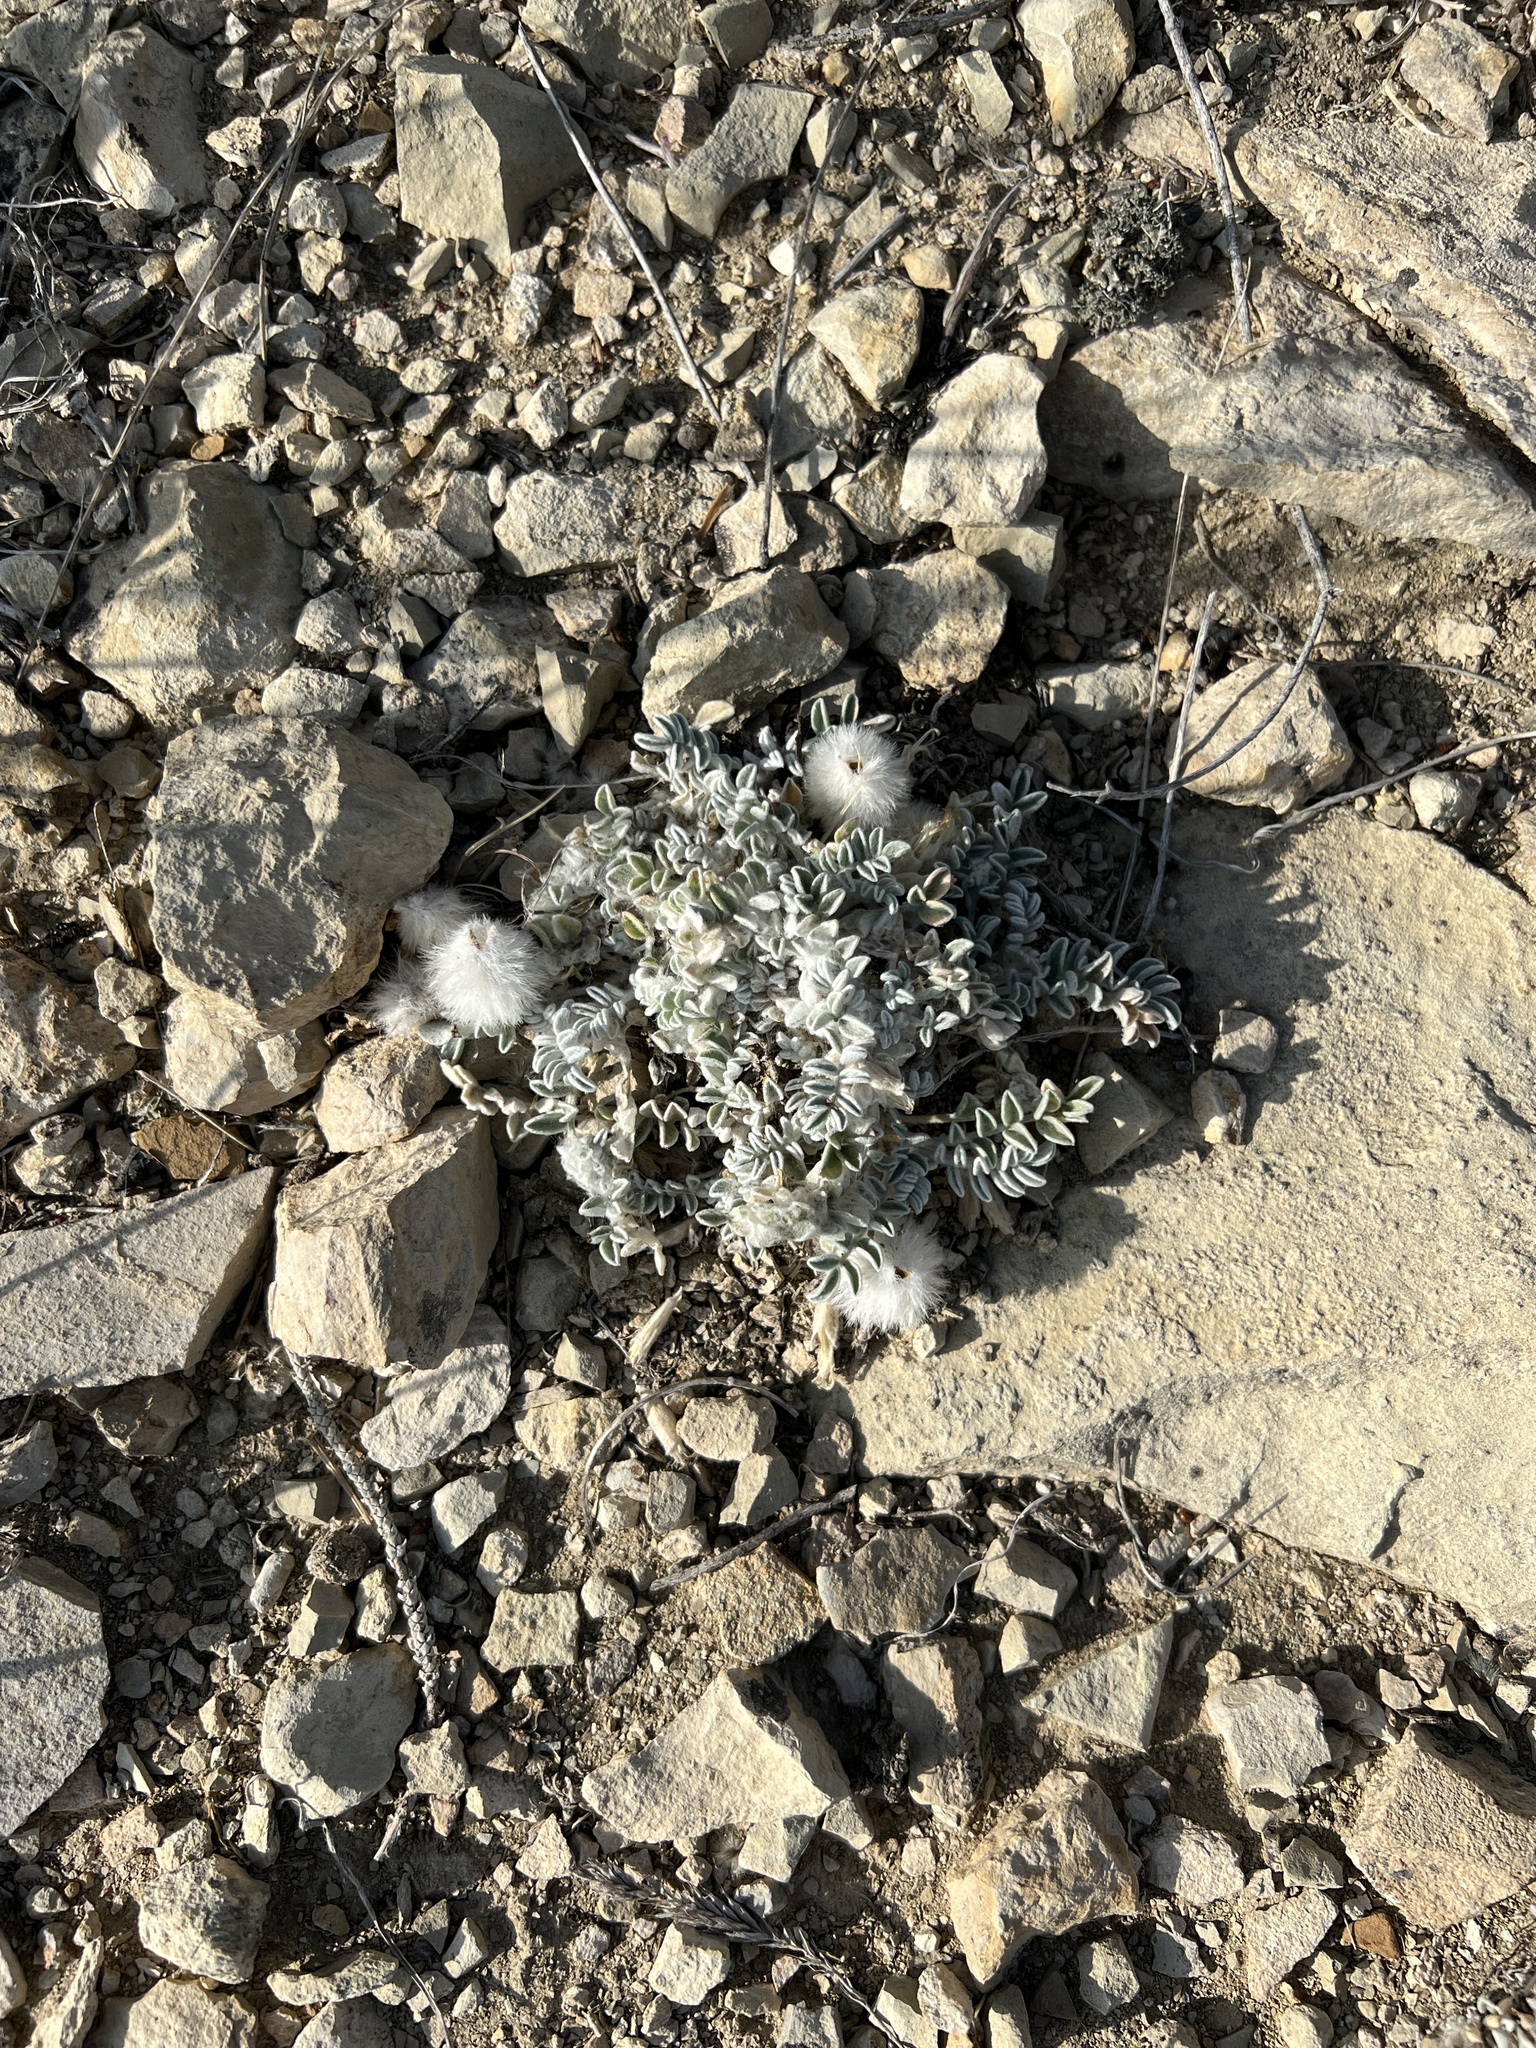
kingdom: Plantae
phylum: Tracheophyta
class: Magnoliopsida
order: Fabales
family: Fabaceae
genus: Astragalus
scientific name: Astragalus utahensis
